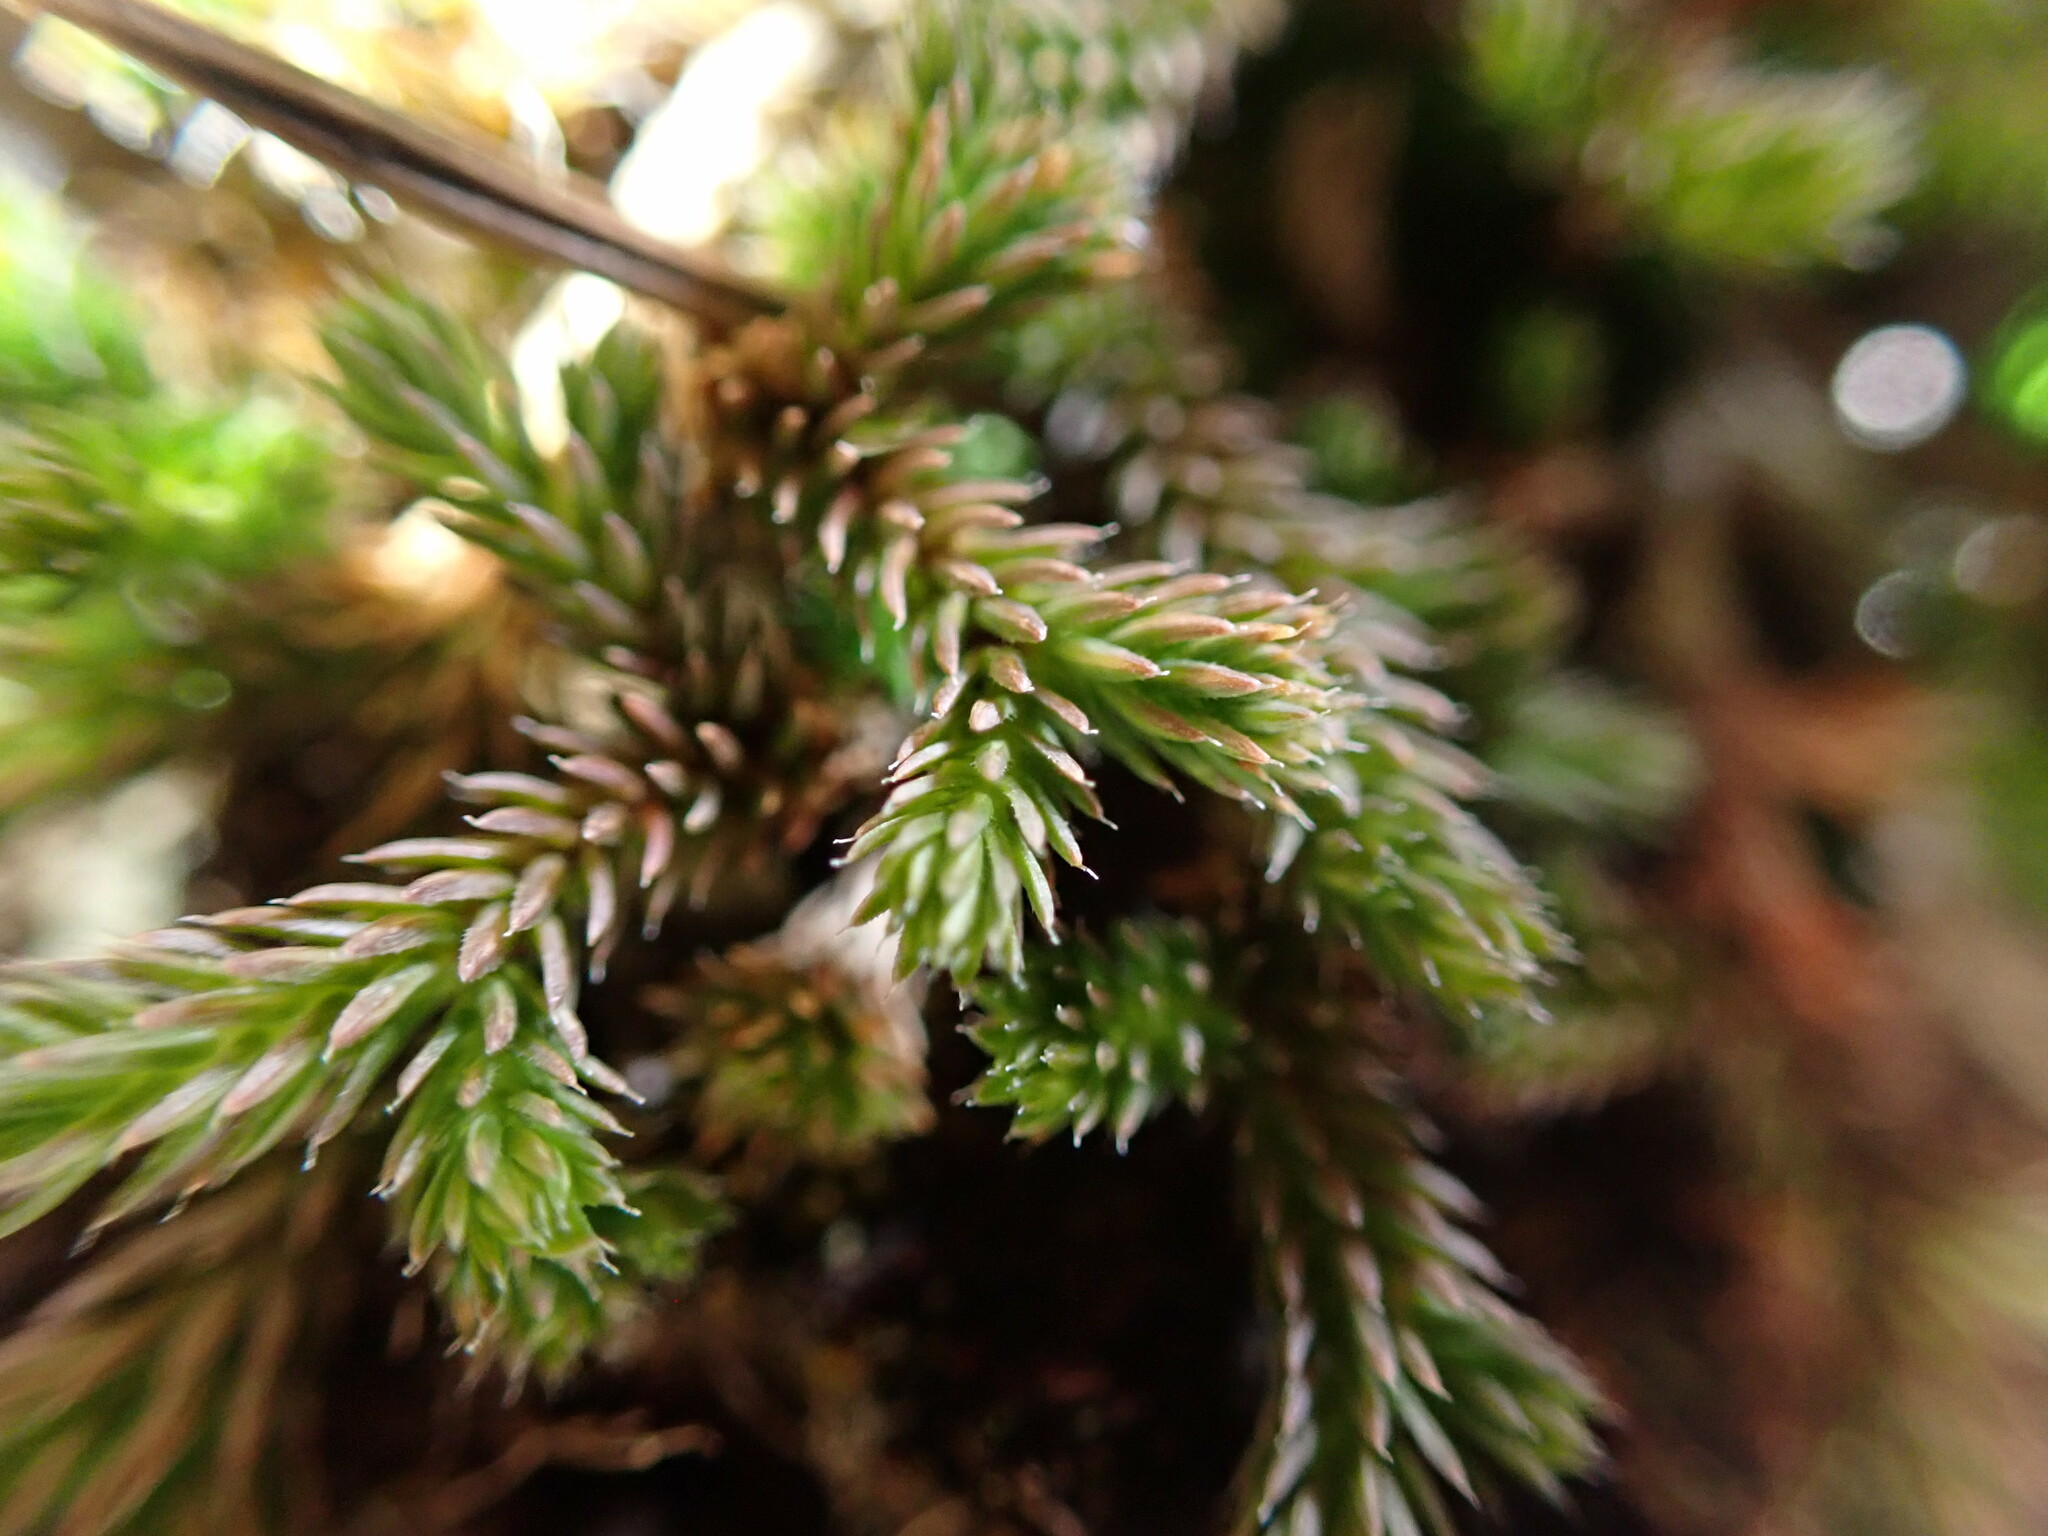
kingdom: Plantae
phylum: Tracheophyta
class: Lycopodiopsida
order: Selaginellales
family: Selaginellaceae
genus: Selaginella
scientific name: Selaginella wallacei
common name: Wallace's selaginella
